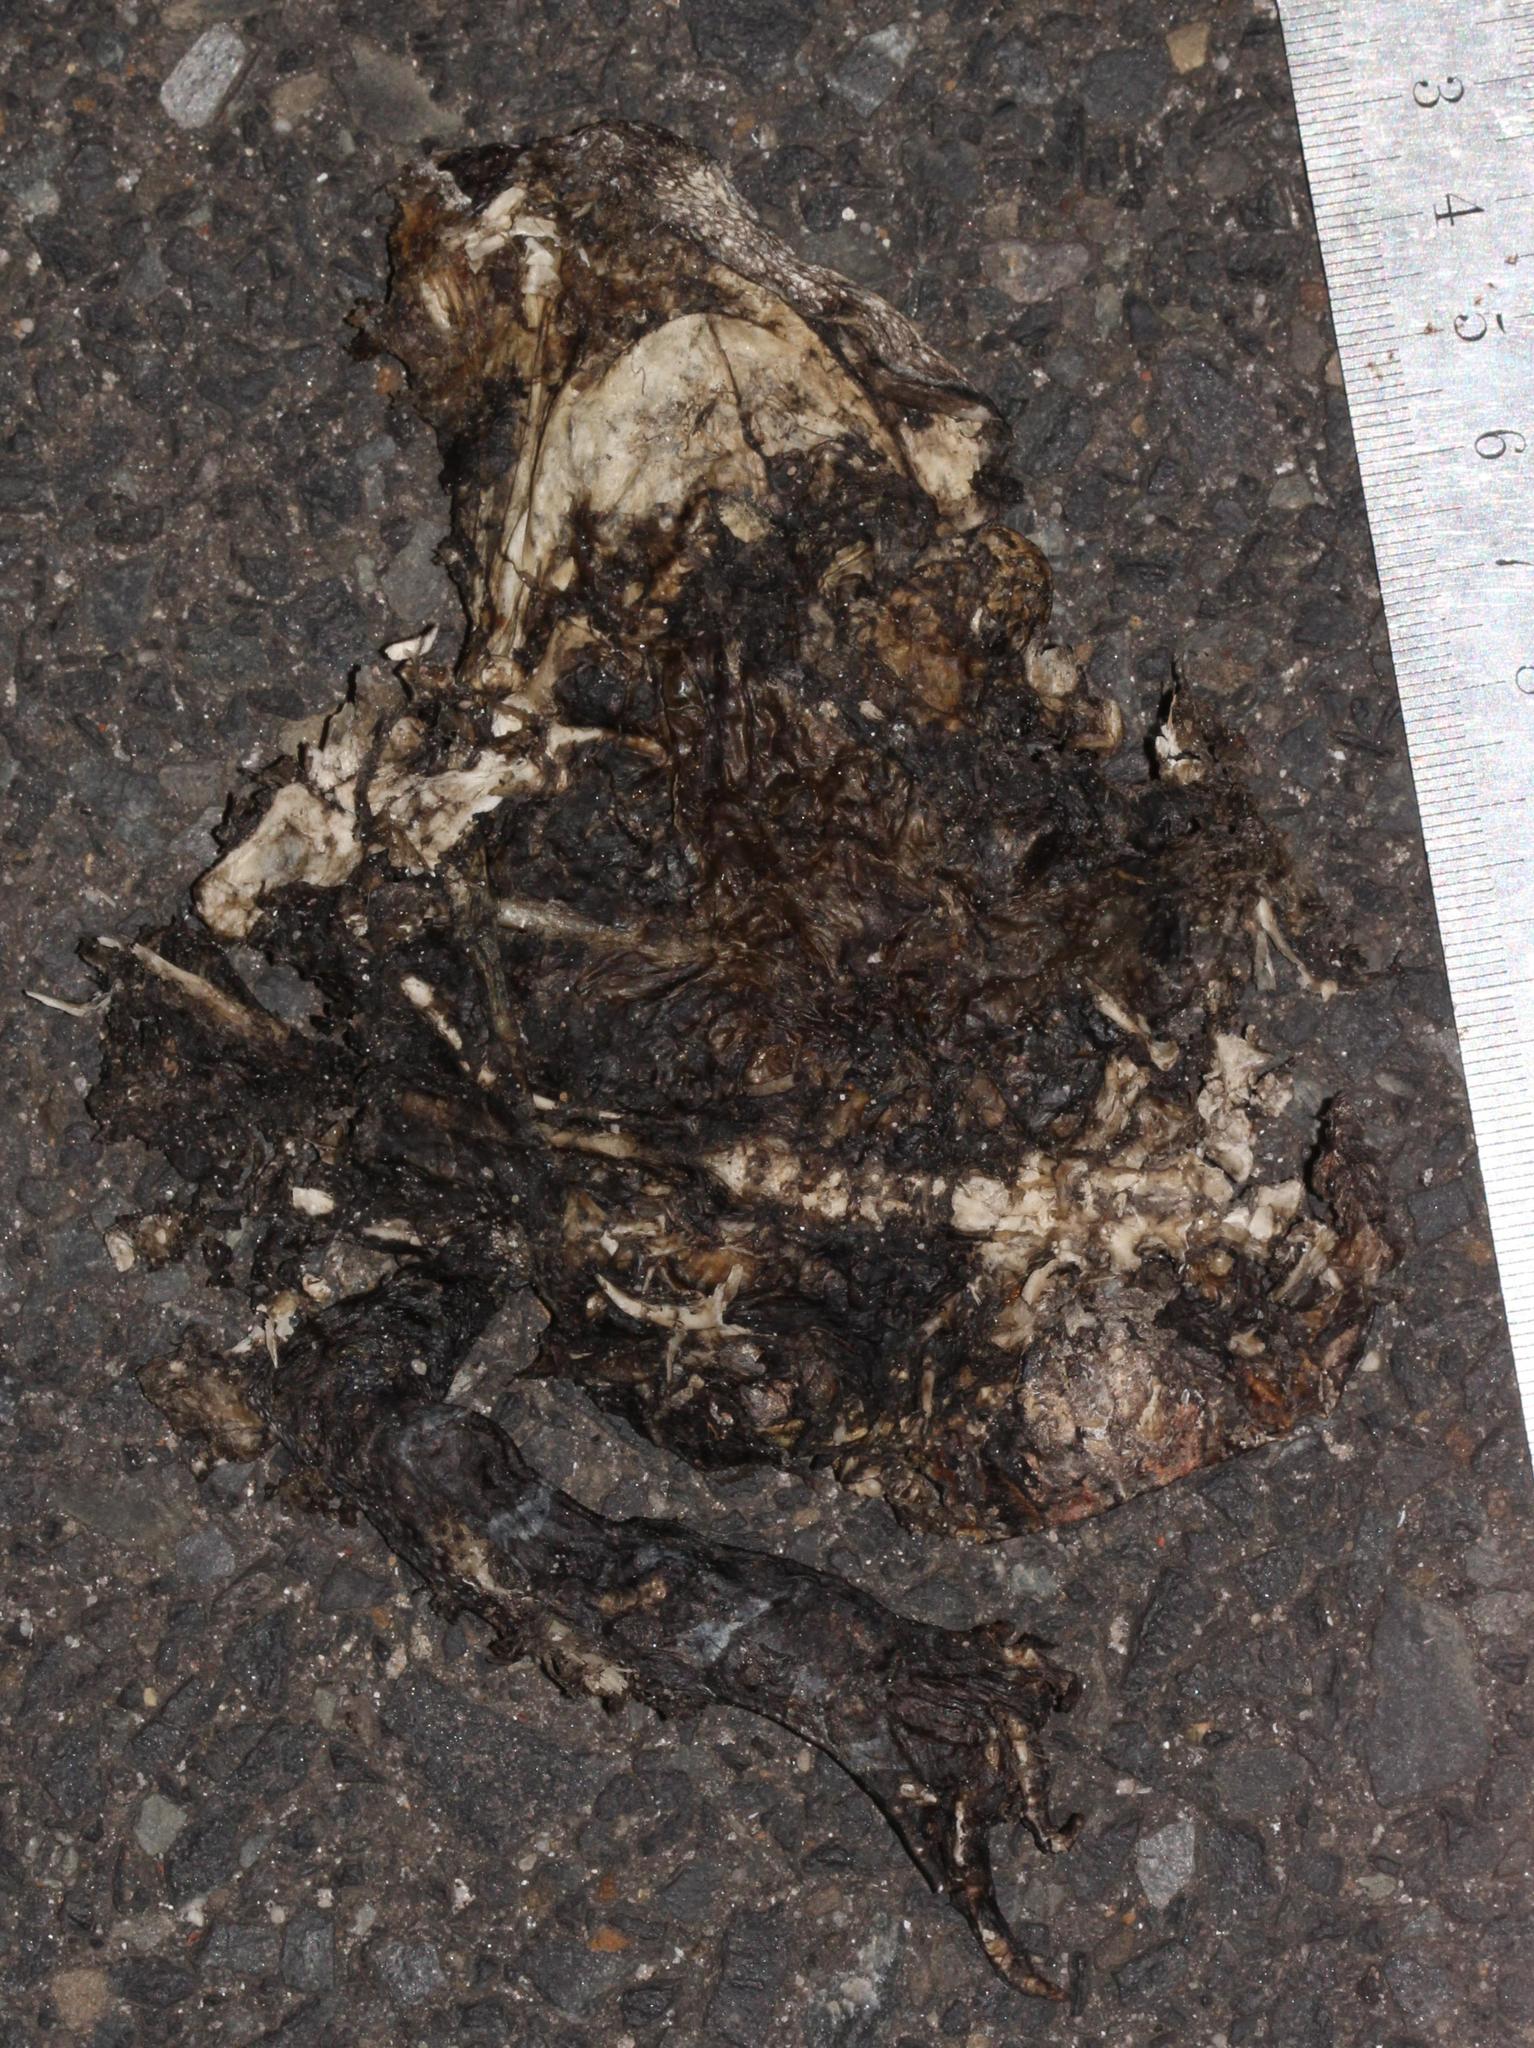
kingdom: Animalia
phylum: Chordata
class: Amphibia
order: Anura
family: Bufonidae
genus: Sclerophrys
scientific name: Sclerophrys pantherina
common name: Panther toad
